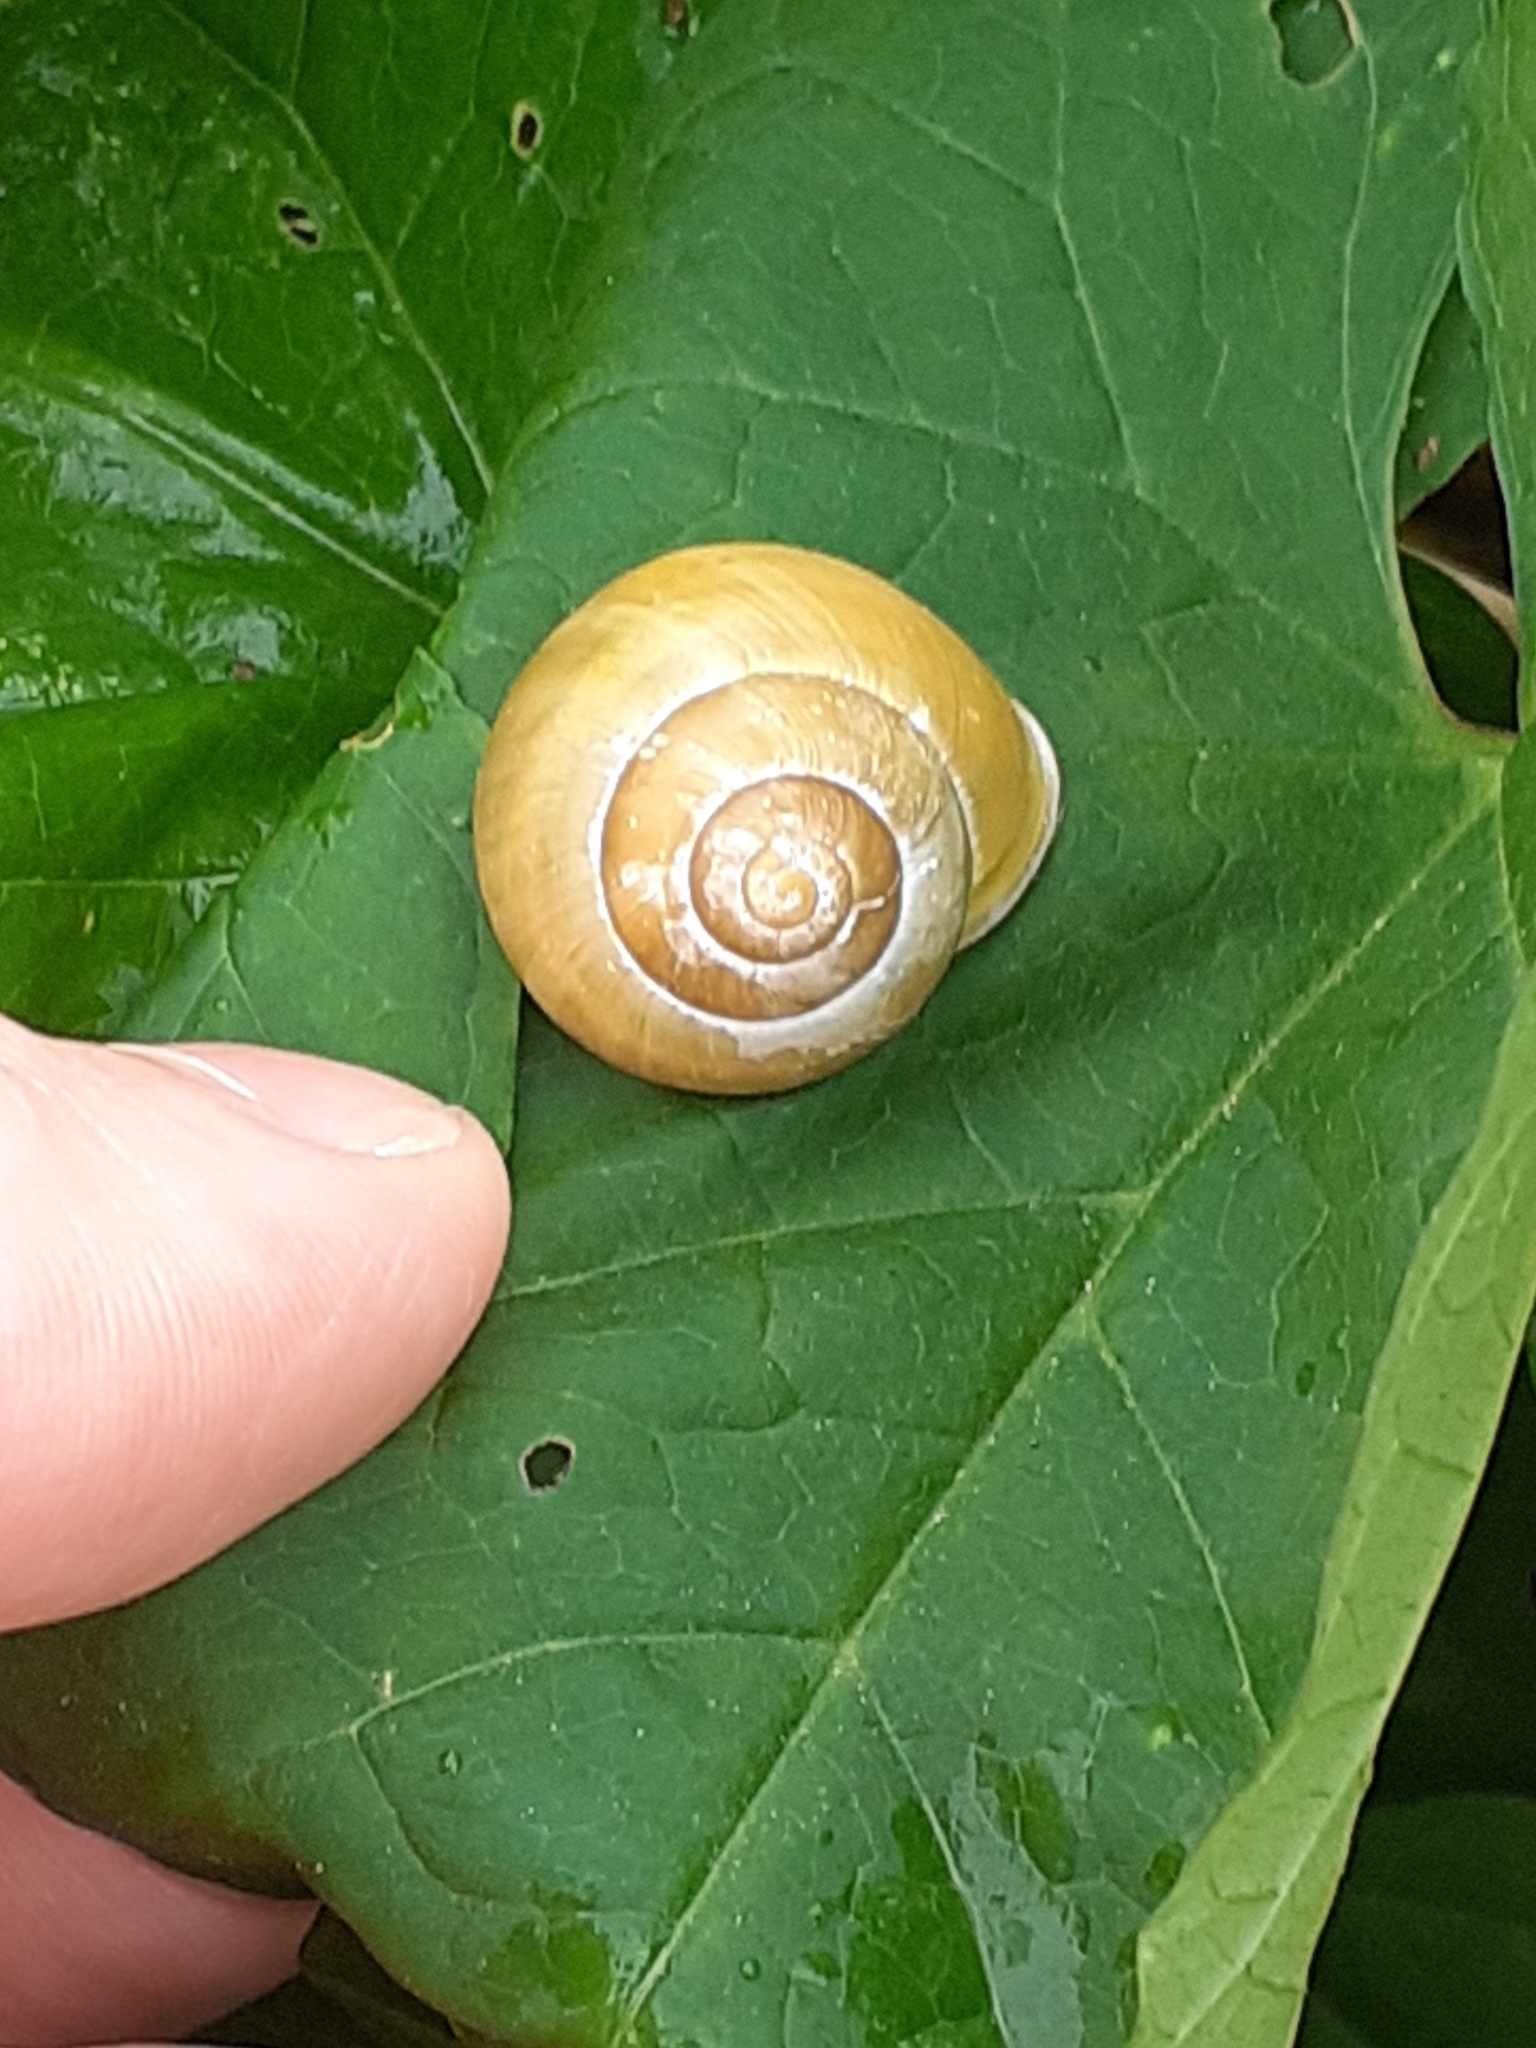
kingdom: Animalia
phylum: Mollusca
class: Gastropoda
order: Stylommatophora
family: Helicidae
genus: Cepaea
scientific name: Cepaea hortensis
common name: White-lip gardensnail
